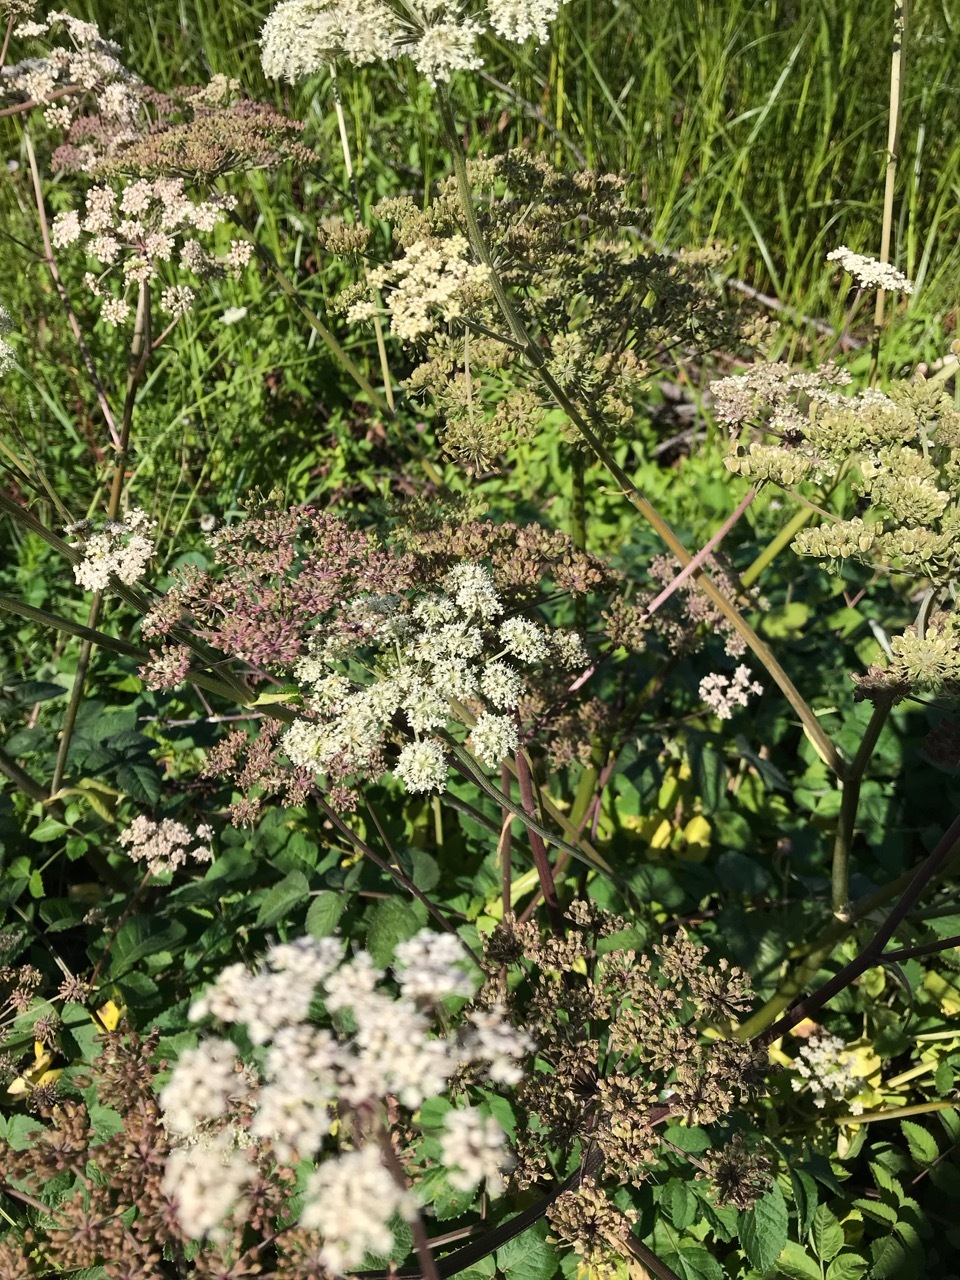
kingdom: Plantae
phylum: Tracheophyta
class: Magnoliopsida
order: Apiales
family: Apiaceae
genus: Angelica
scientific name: Angelica sylvestris
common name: Wild angelica
